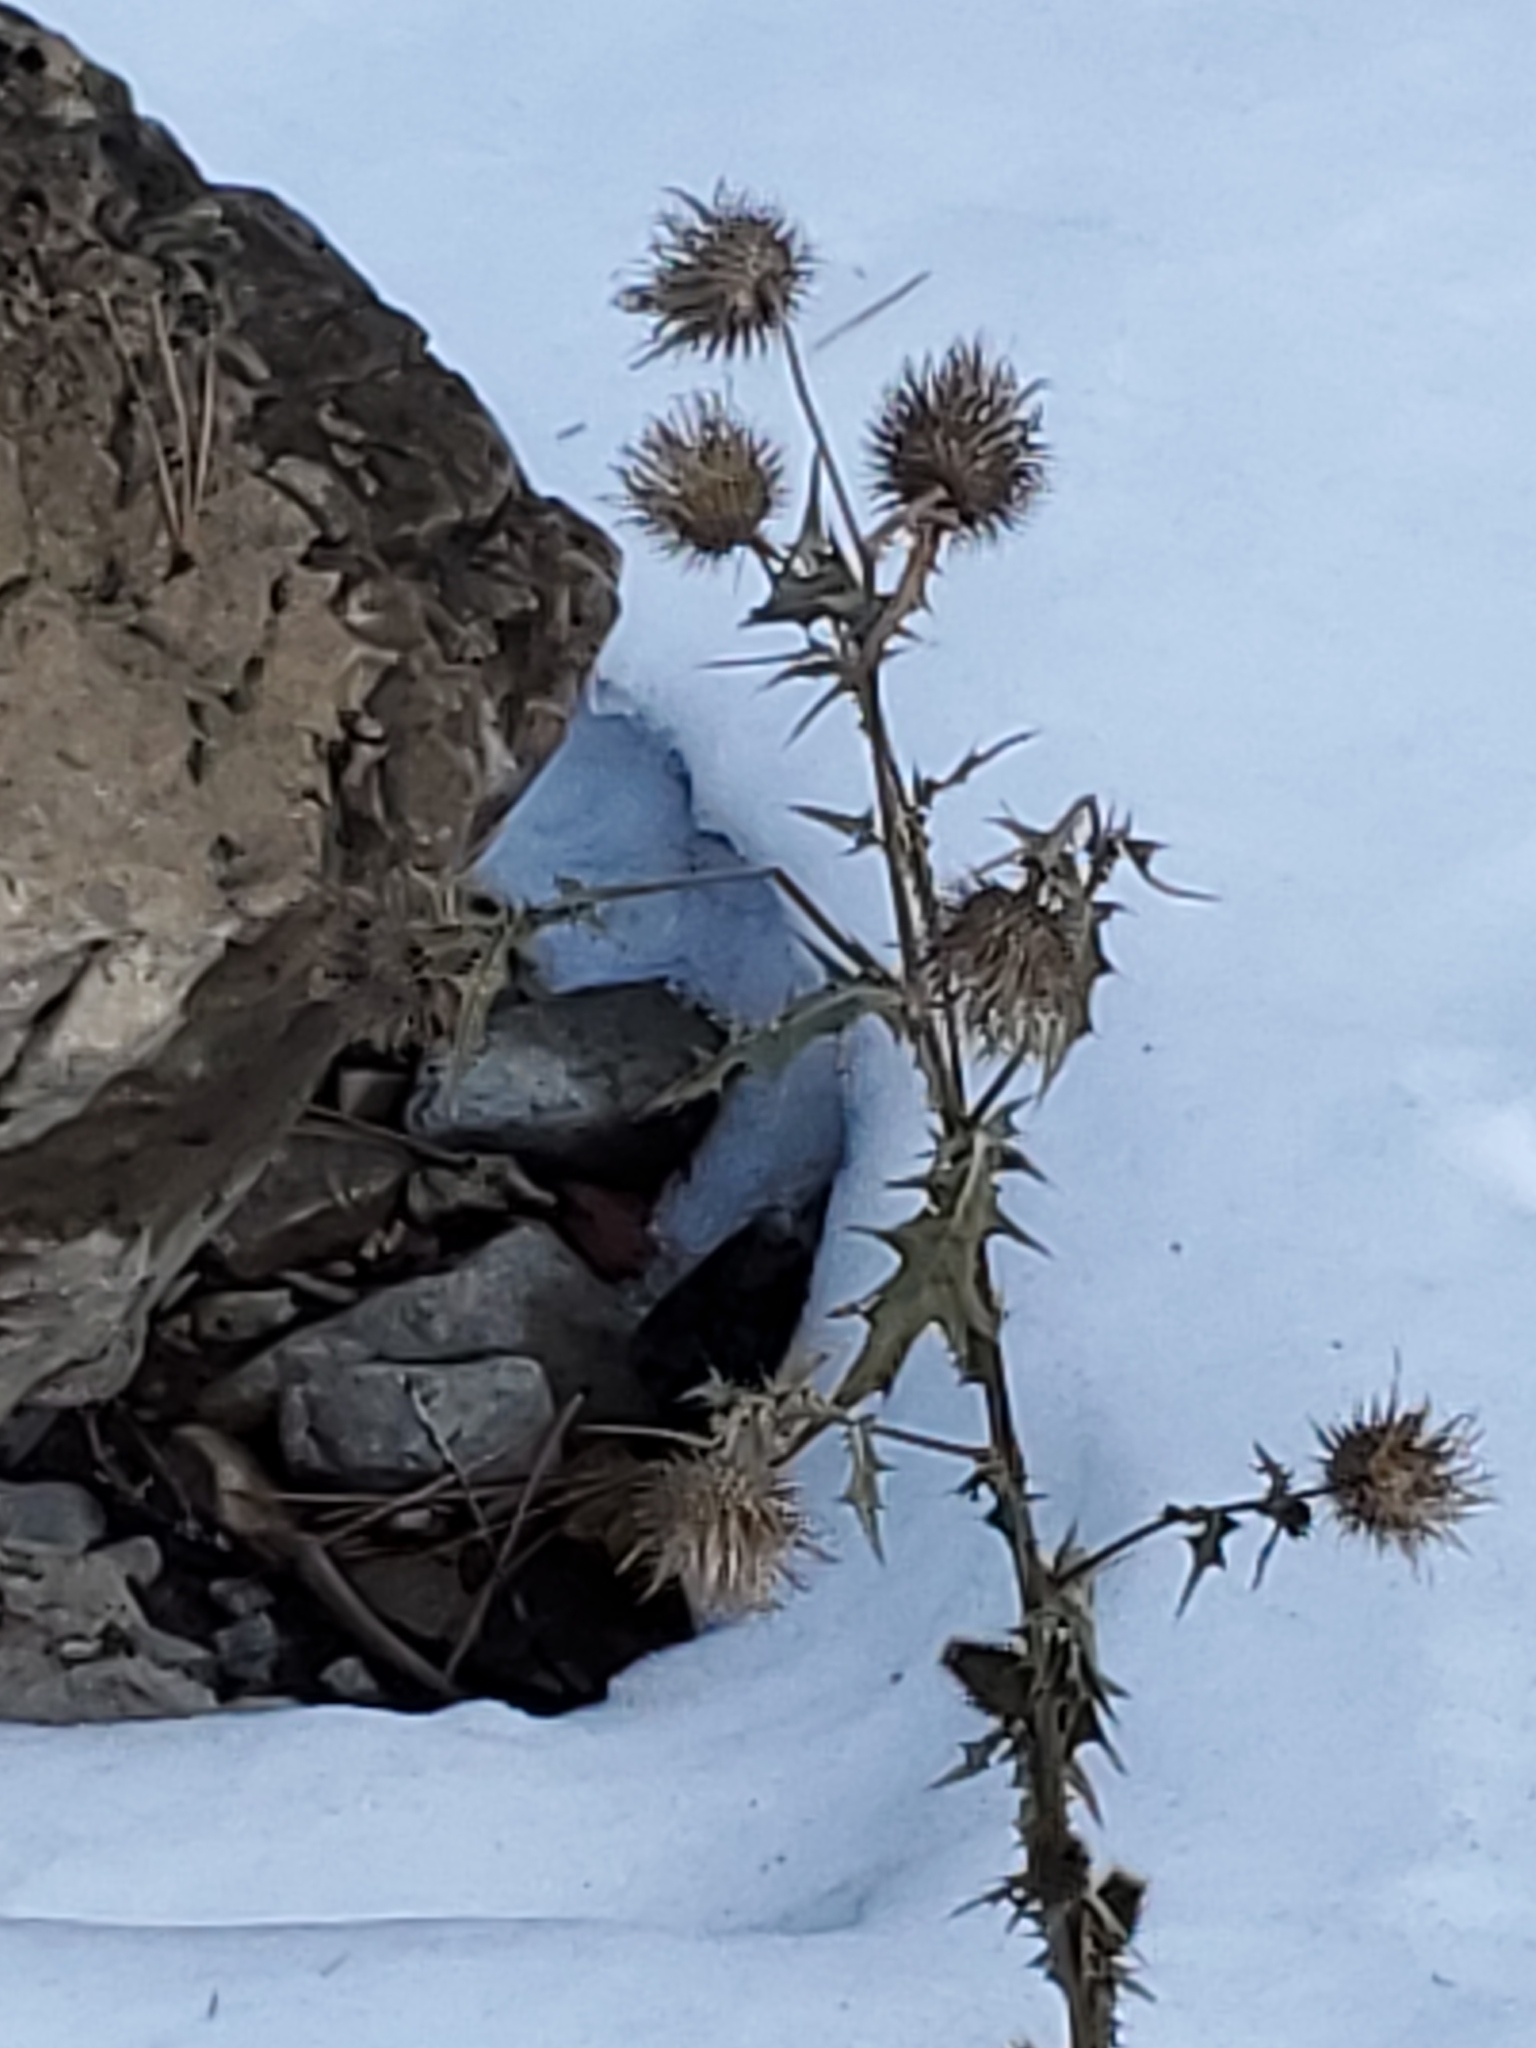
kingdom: Plantae
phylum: Tracheophyta
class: Magnoliopsida
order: Asterales
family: Asteraceae
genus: Cirsium
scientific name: Cirsium vulgare
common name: Bull thistle
